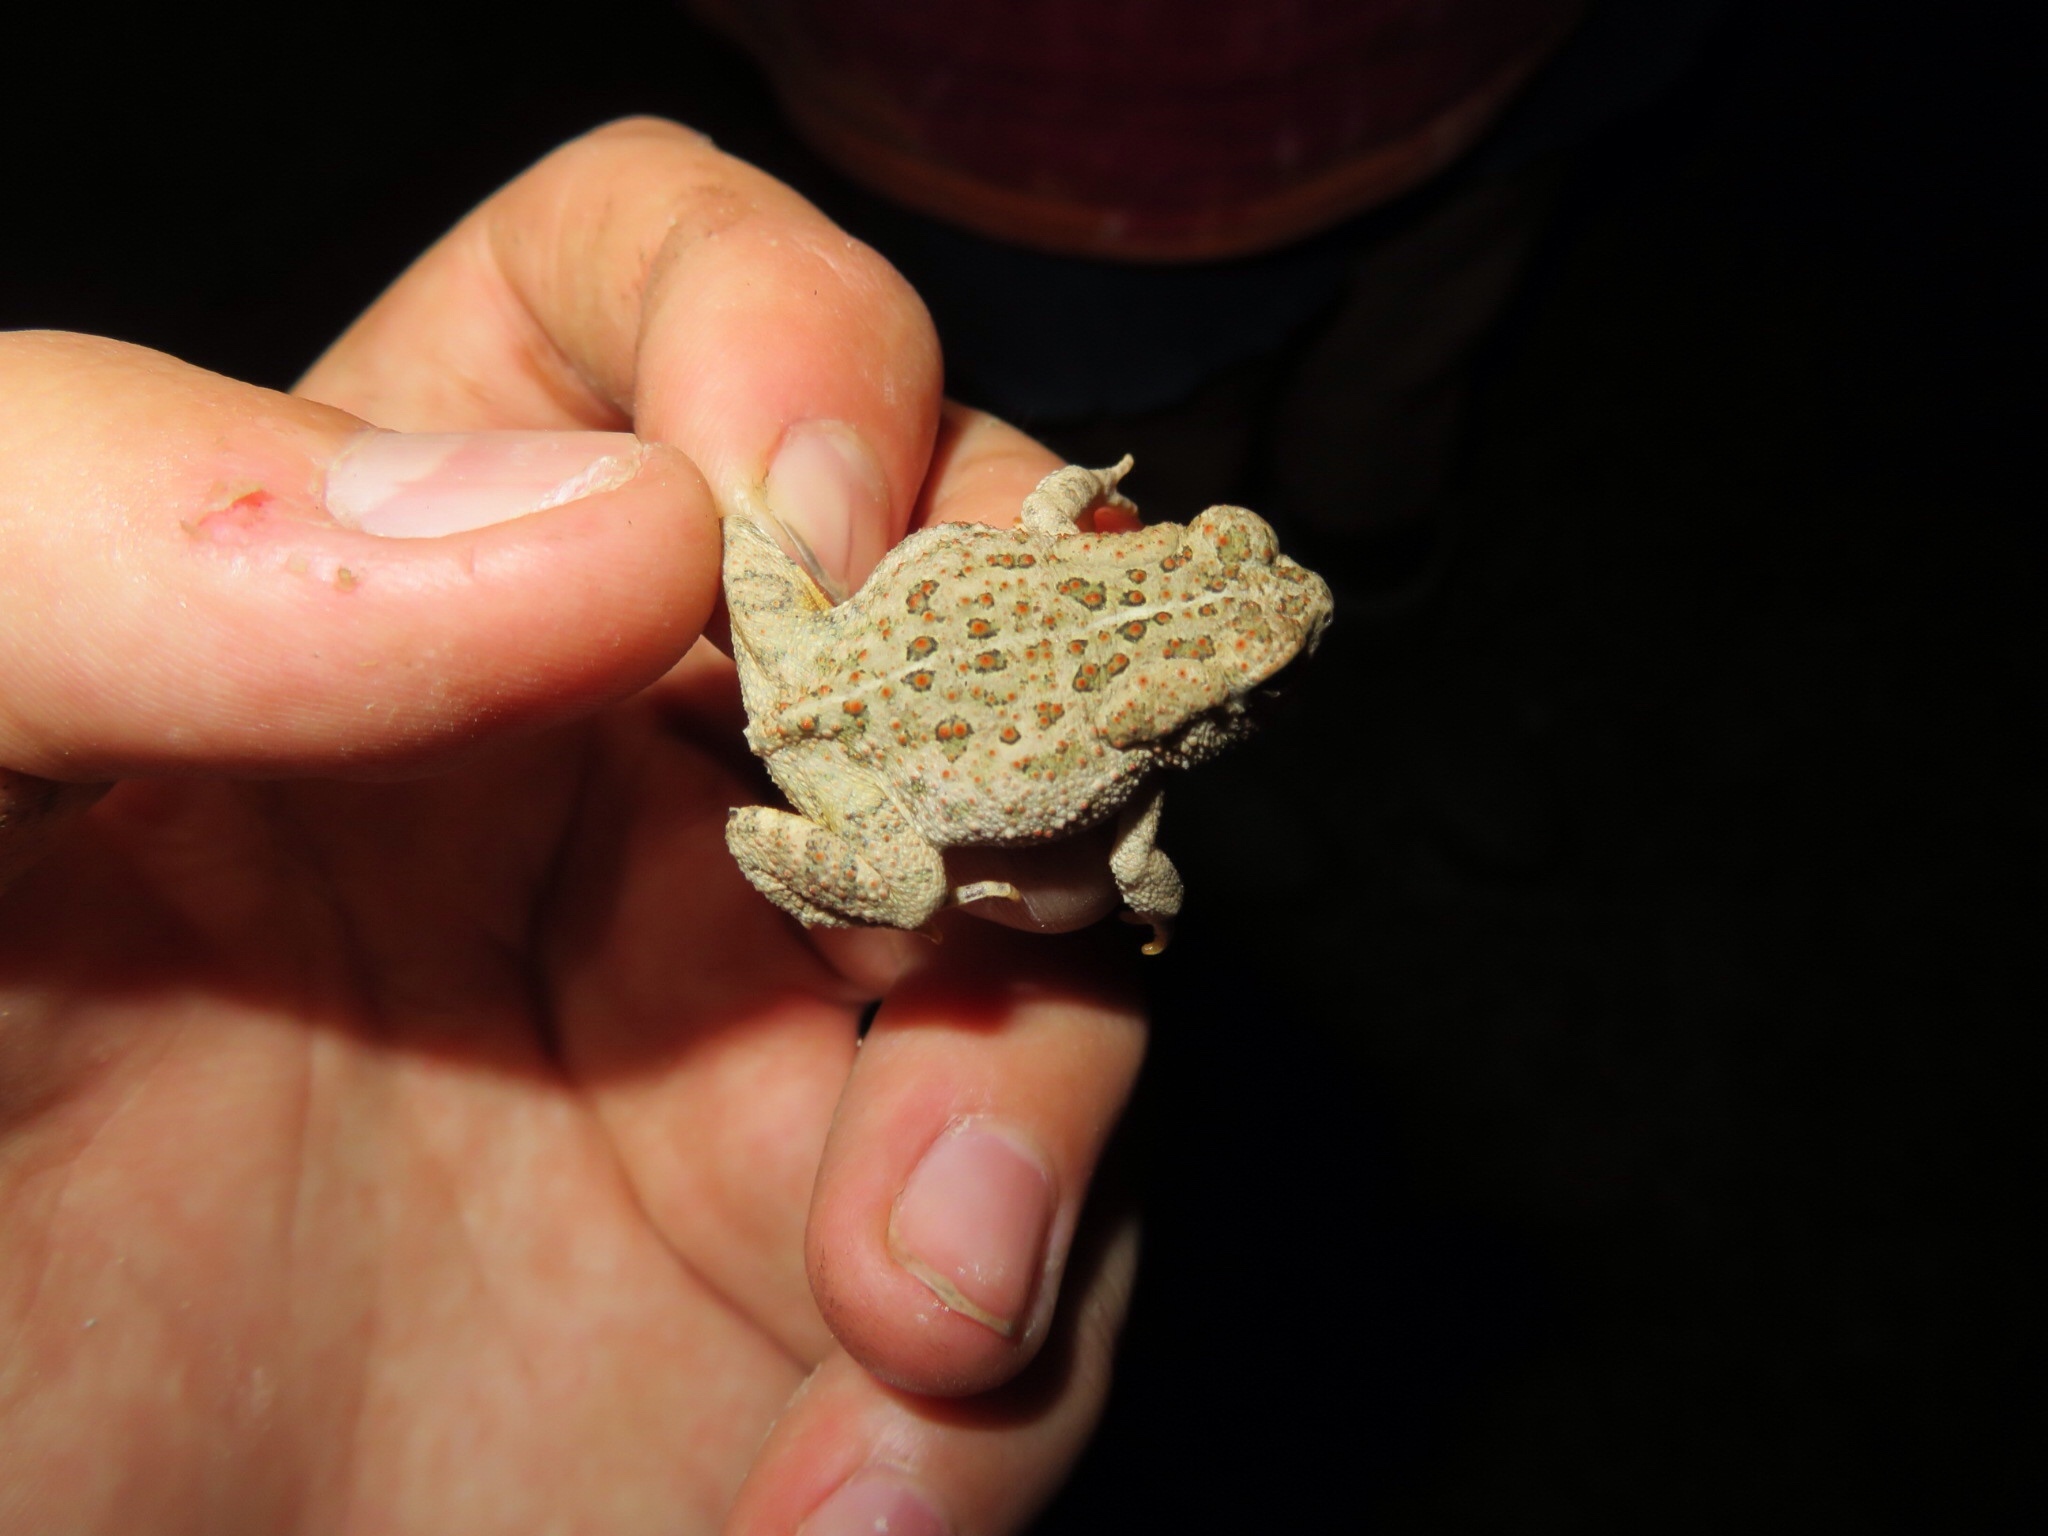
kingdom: Animalia
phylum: Chordata
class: Amphibia
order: Anura
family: Bufonidae
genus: Anaxyrus
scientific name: Anaxyrus woodhousii
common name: Woodhouse's toad
